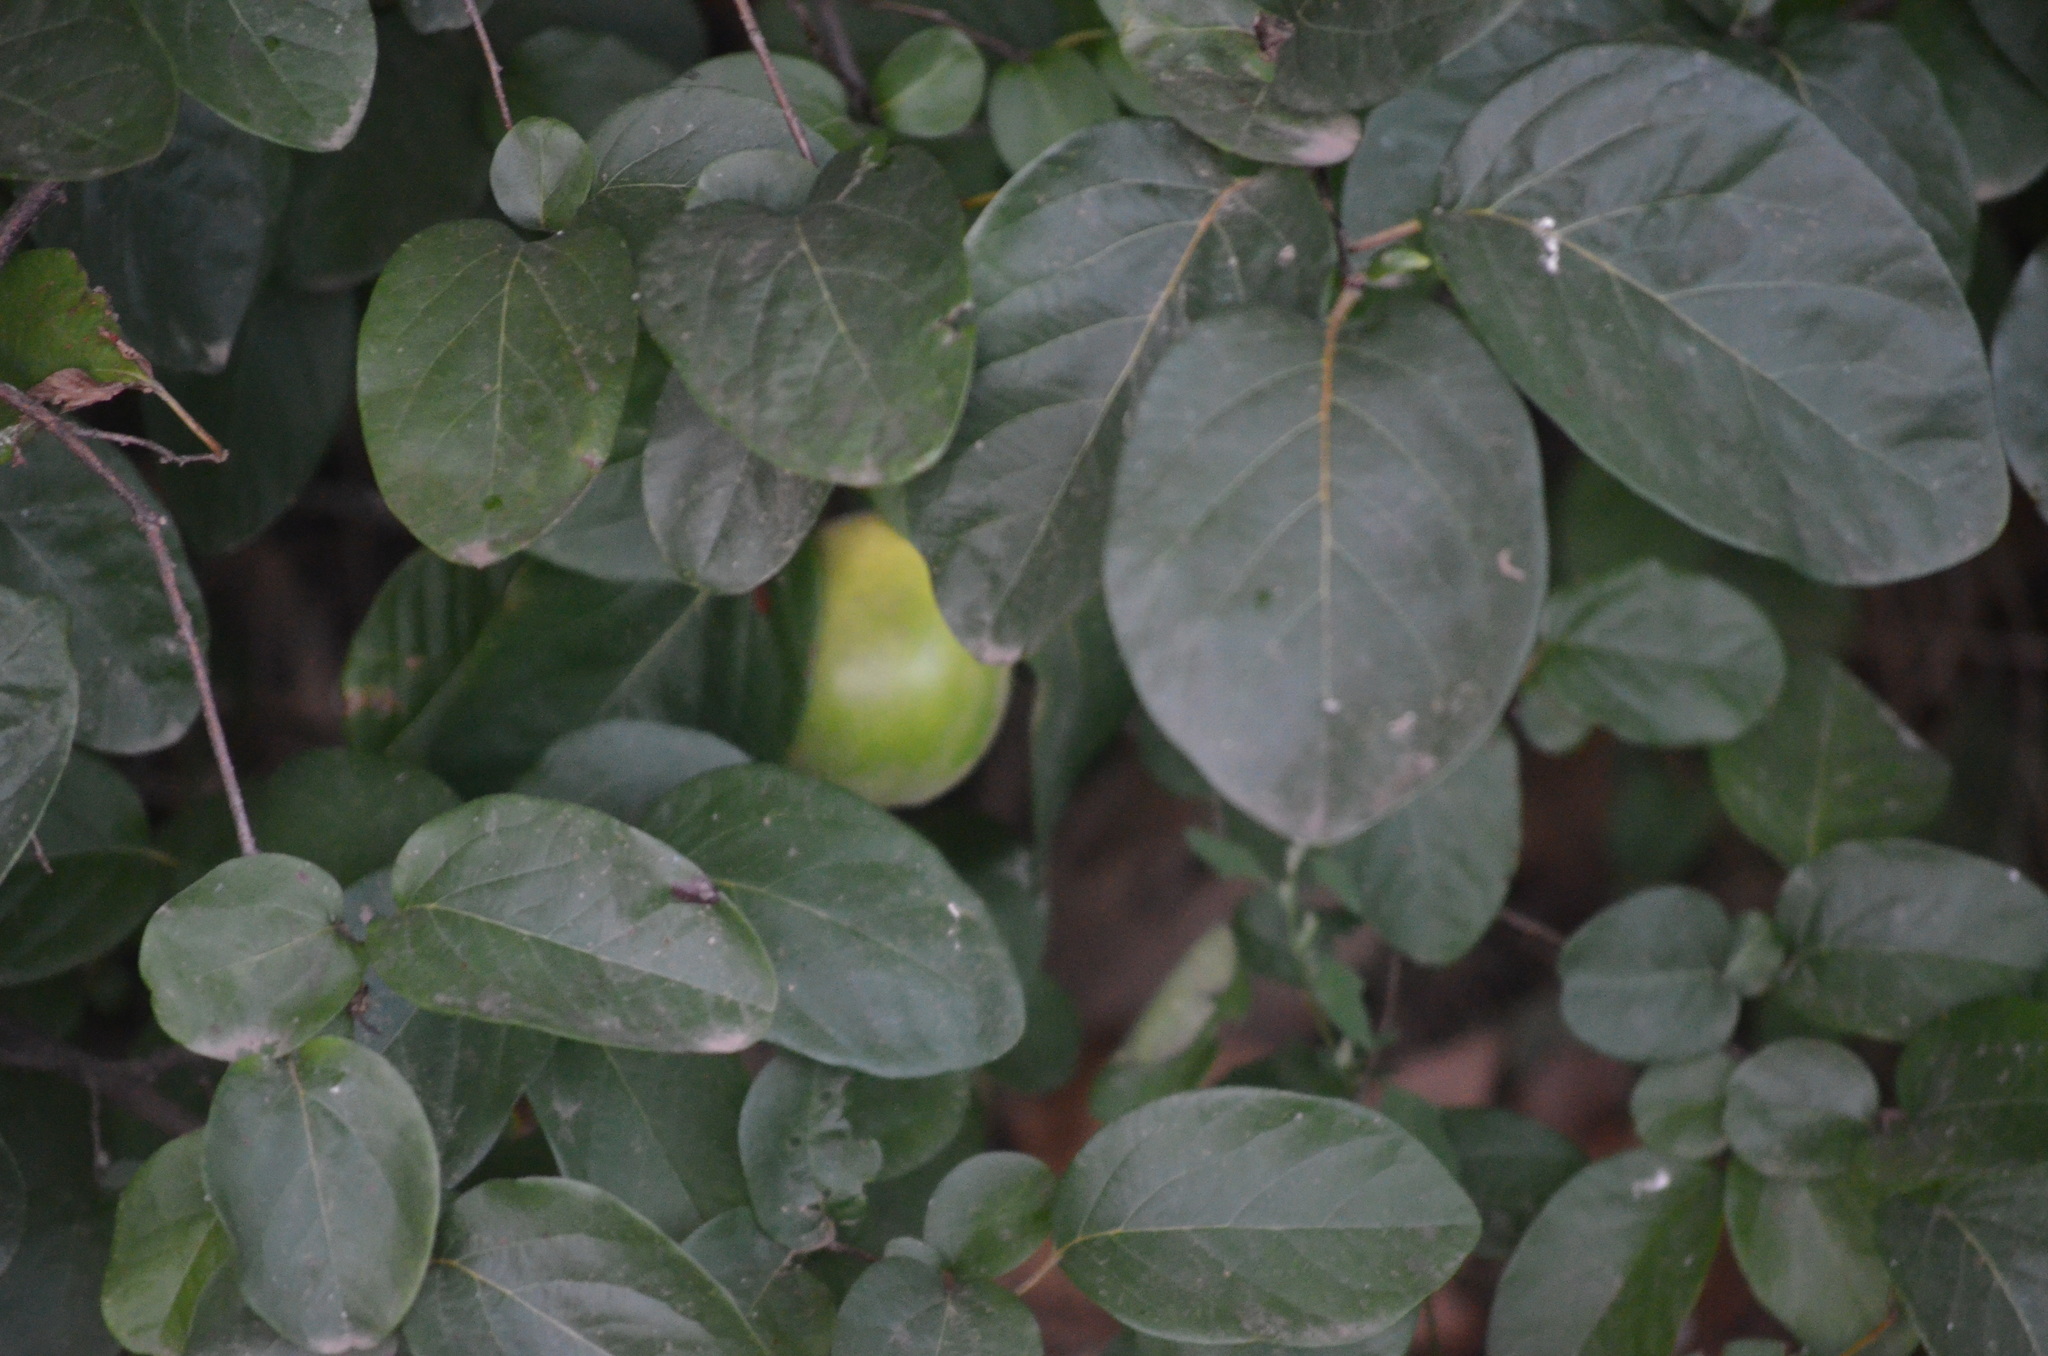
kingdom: Plantae
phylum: Tracheophyta
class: Magnoliopsida
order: Rosales
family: Rosaceae
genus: Cydonia
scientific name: Cydonia oblonga
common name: Quince
